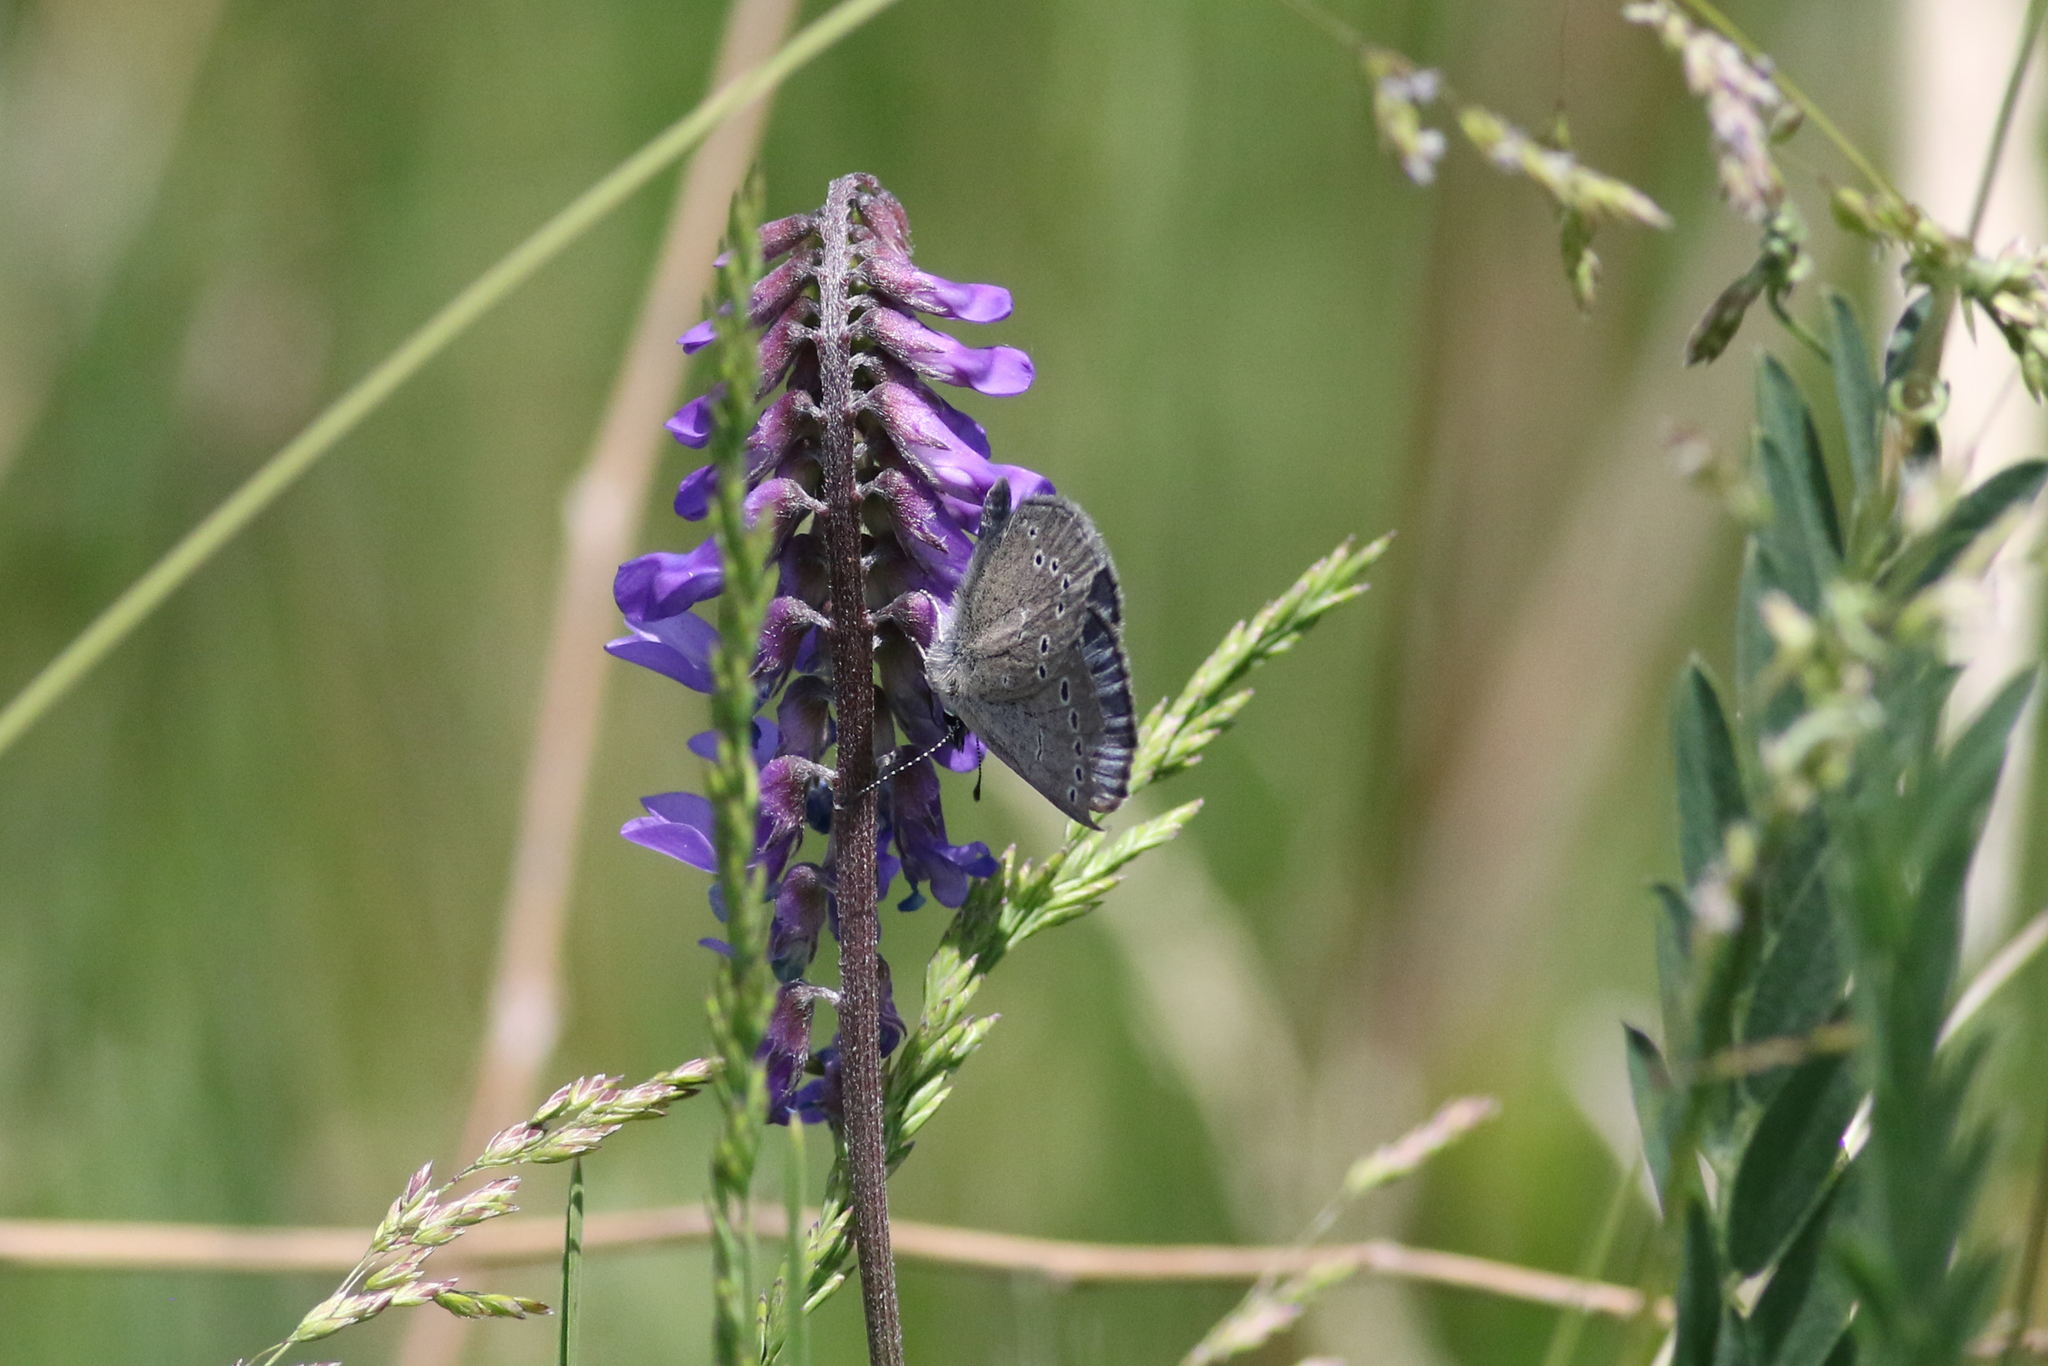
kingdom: Animalia
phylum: Arthropoda
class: Insecta
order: Lepidoptera
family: Lycaenidae
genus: Glaucopsyche
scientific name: Glaucopsyche lygdamus
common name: Silvery blue
